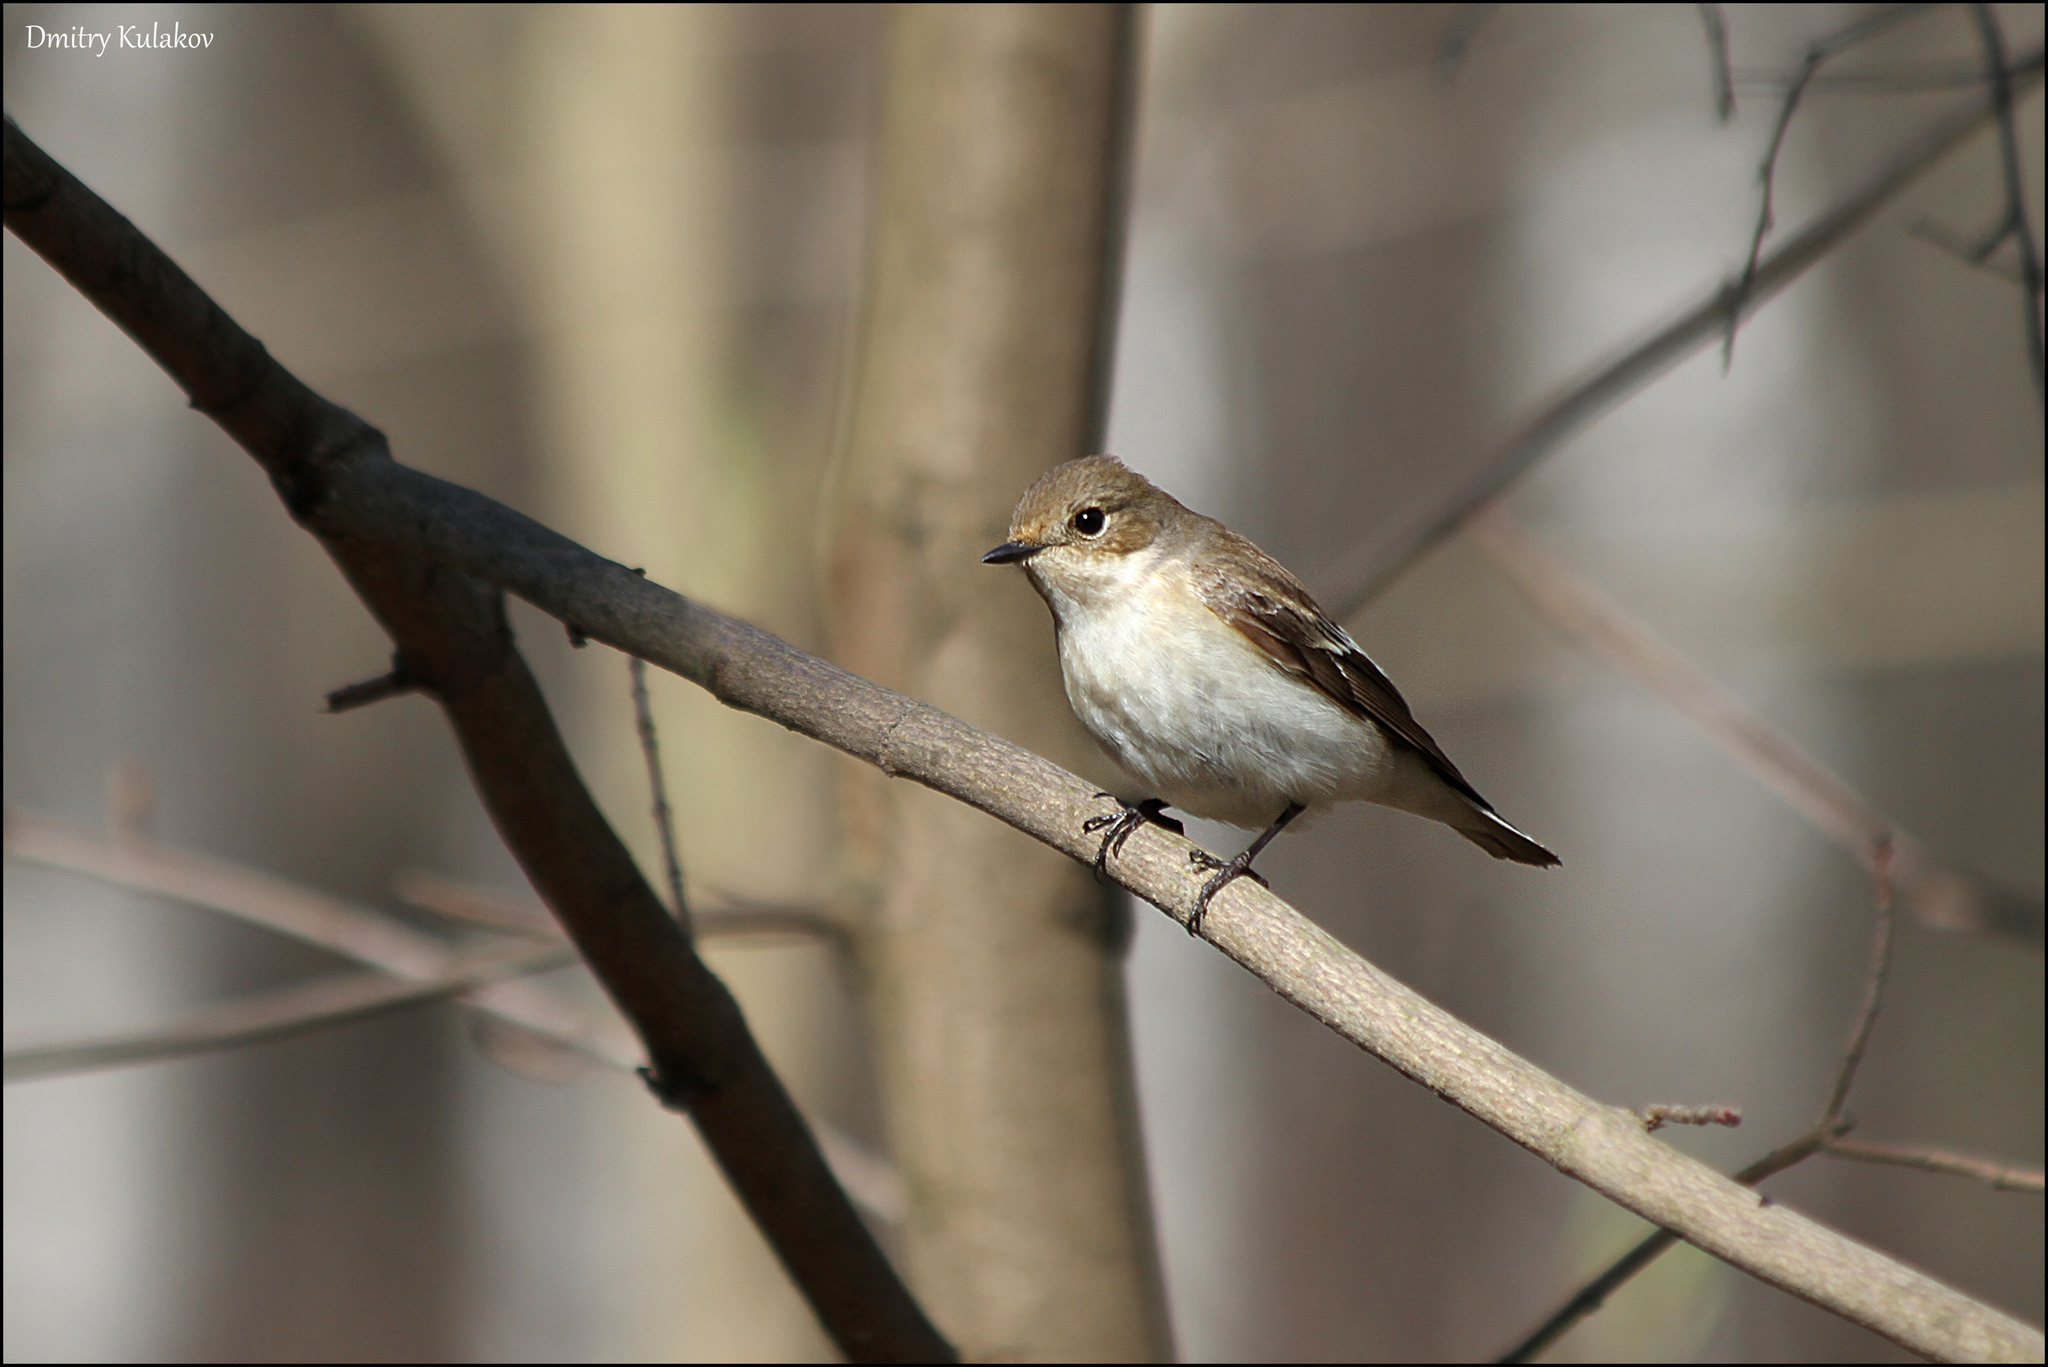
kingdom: Animalia
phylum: Chordata
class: Aves
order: Passeriformes
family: Muscicapidae
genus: Ficedula
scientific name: Ficedula hypoleuca
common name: European pied flycatcher
